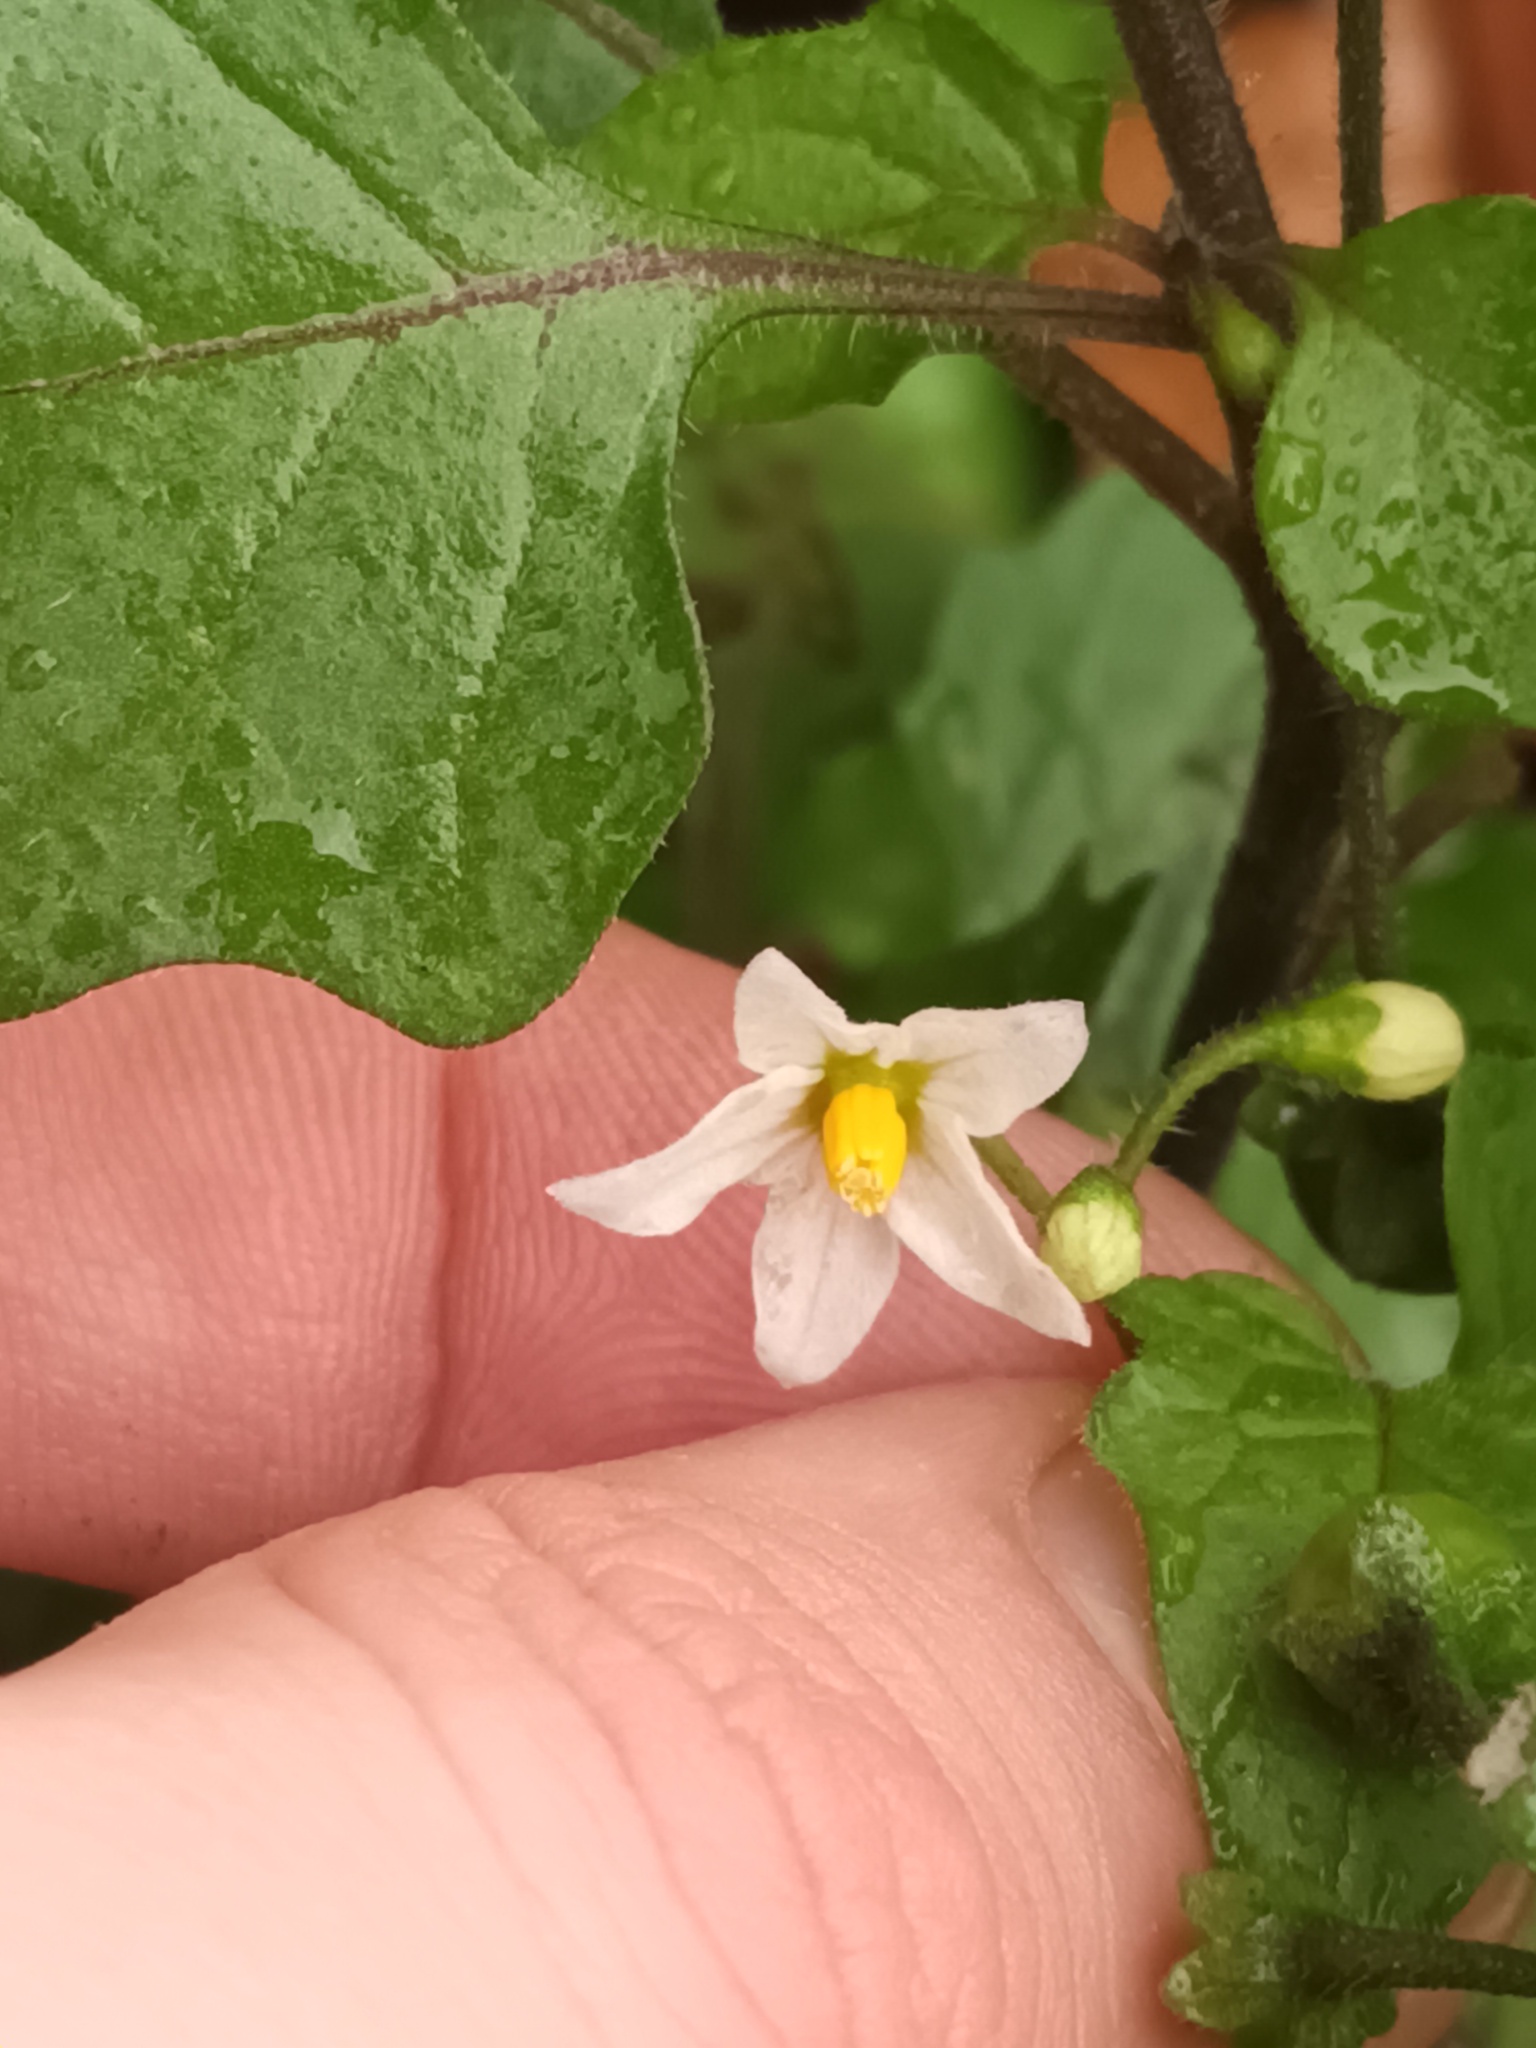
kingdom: Plantae
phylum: Tracheophyta
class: Magnoliopsida
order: Solanales
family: Solanaceae
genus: Solanum
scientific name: Solanum nigrum
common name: Black nightshade
